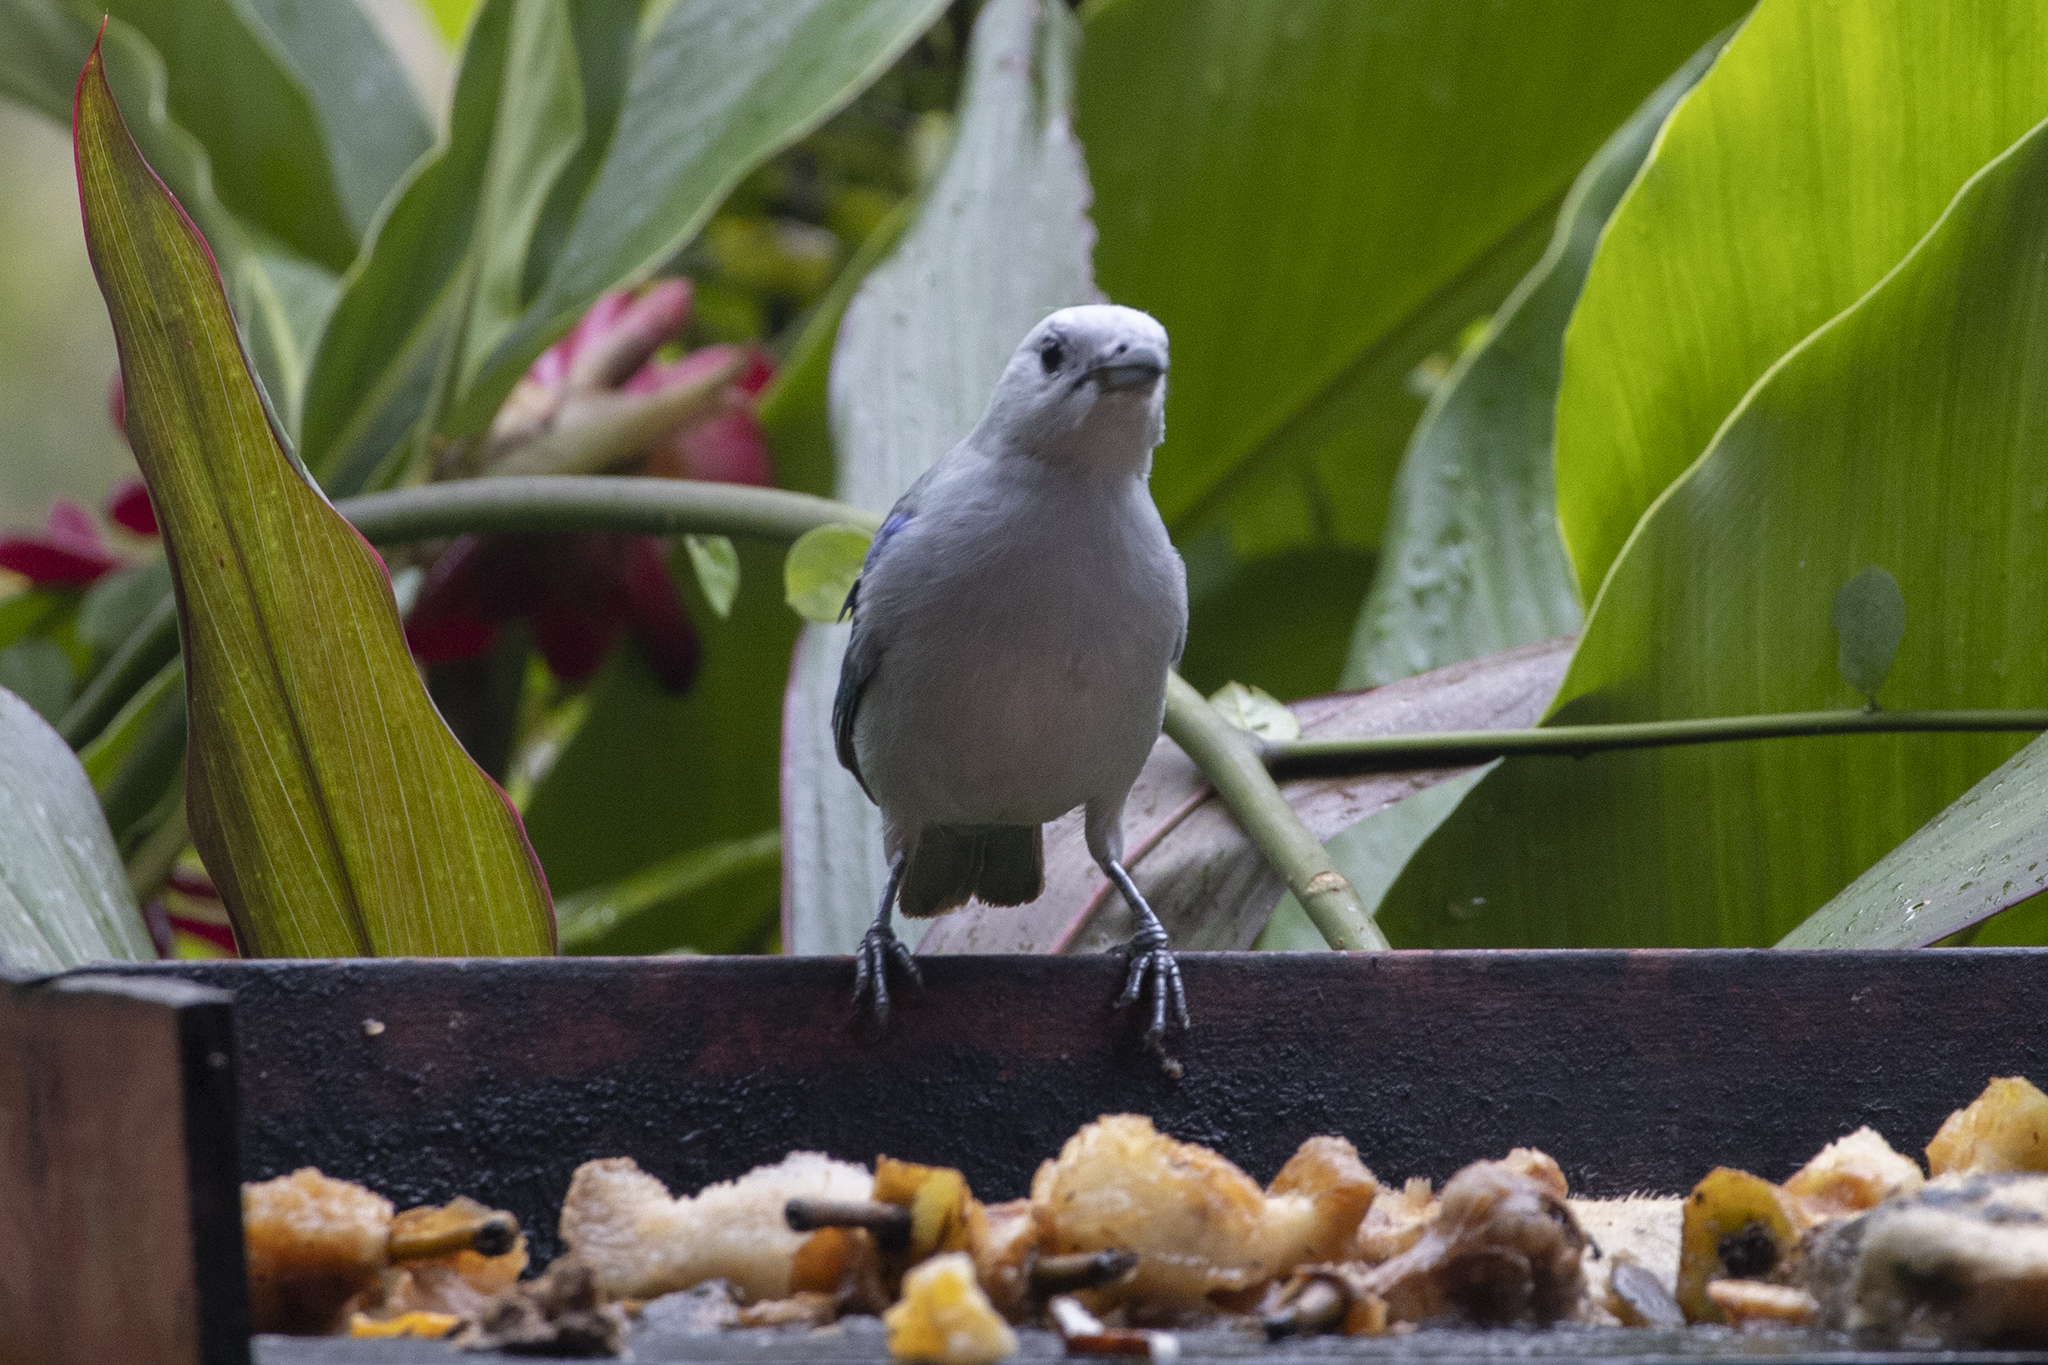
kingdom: Animalia
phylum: Chordata
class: Aves
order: Passeriformes
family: Thraupidae
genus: Thraupis
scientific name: Thraupis episcopus
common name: Blue-grey tanager
